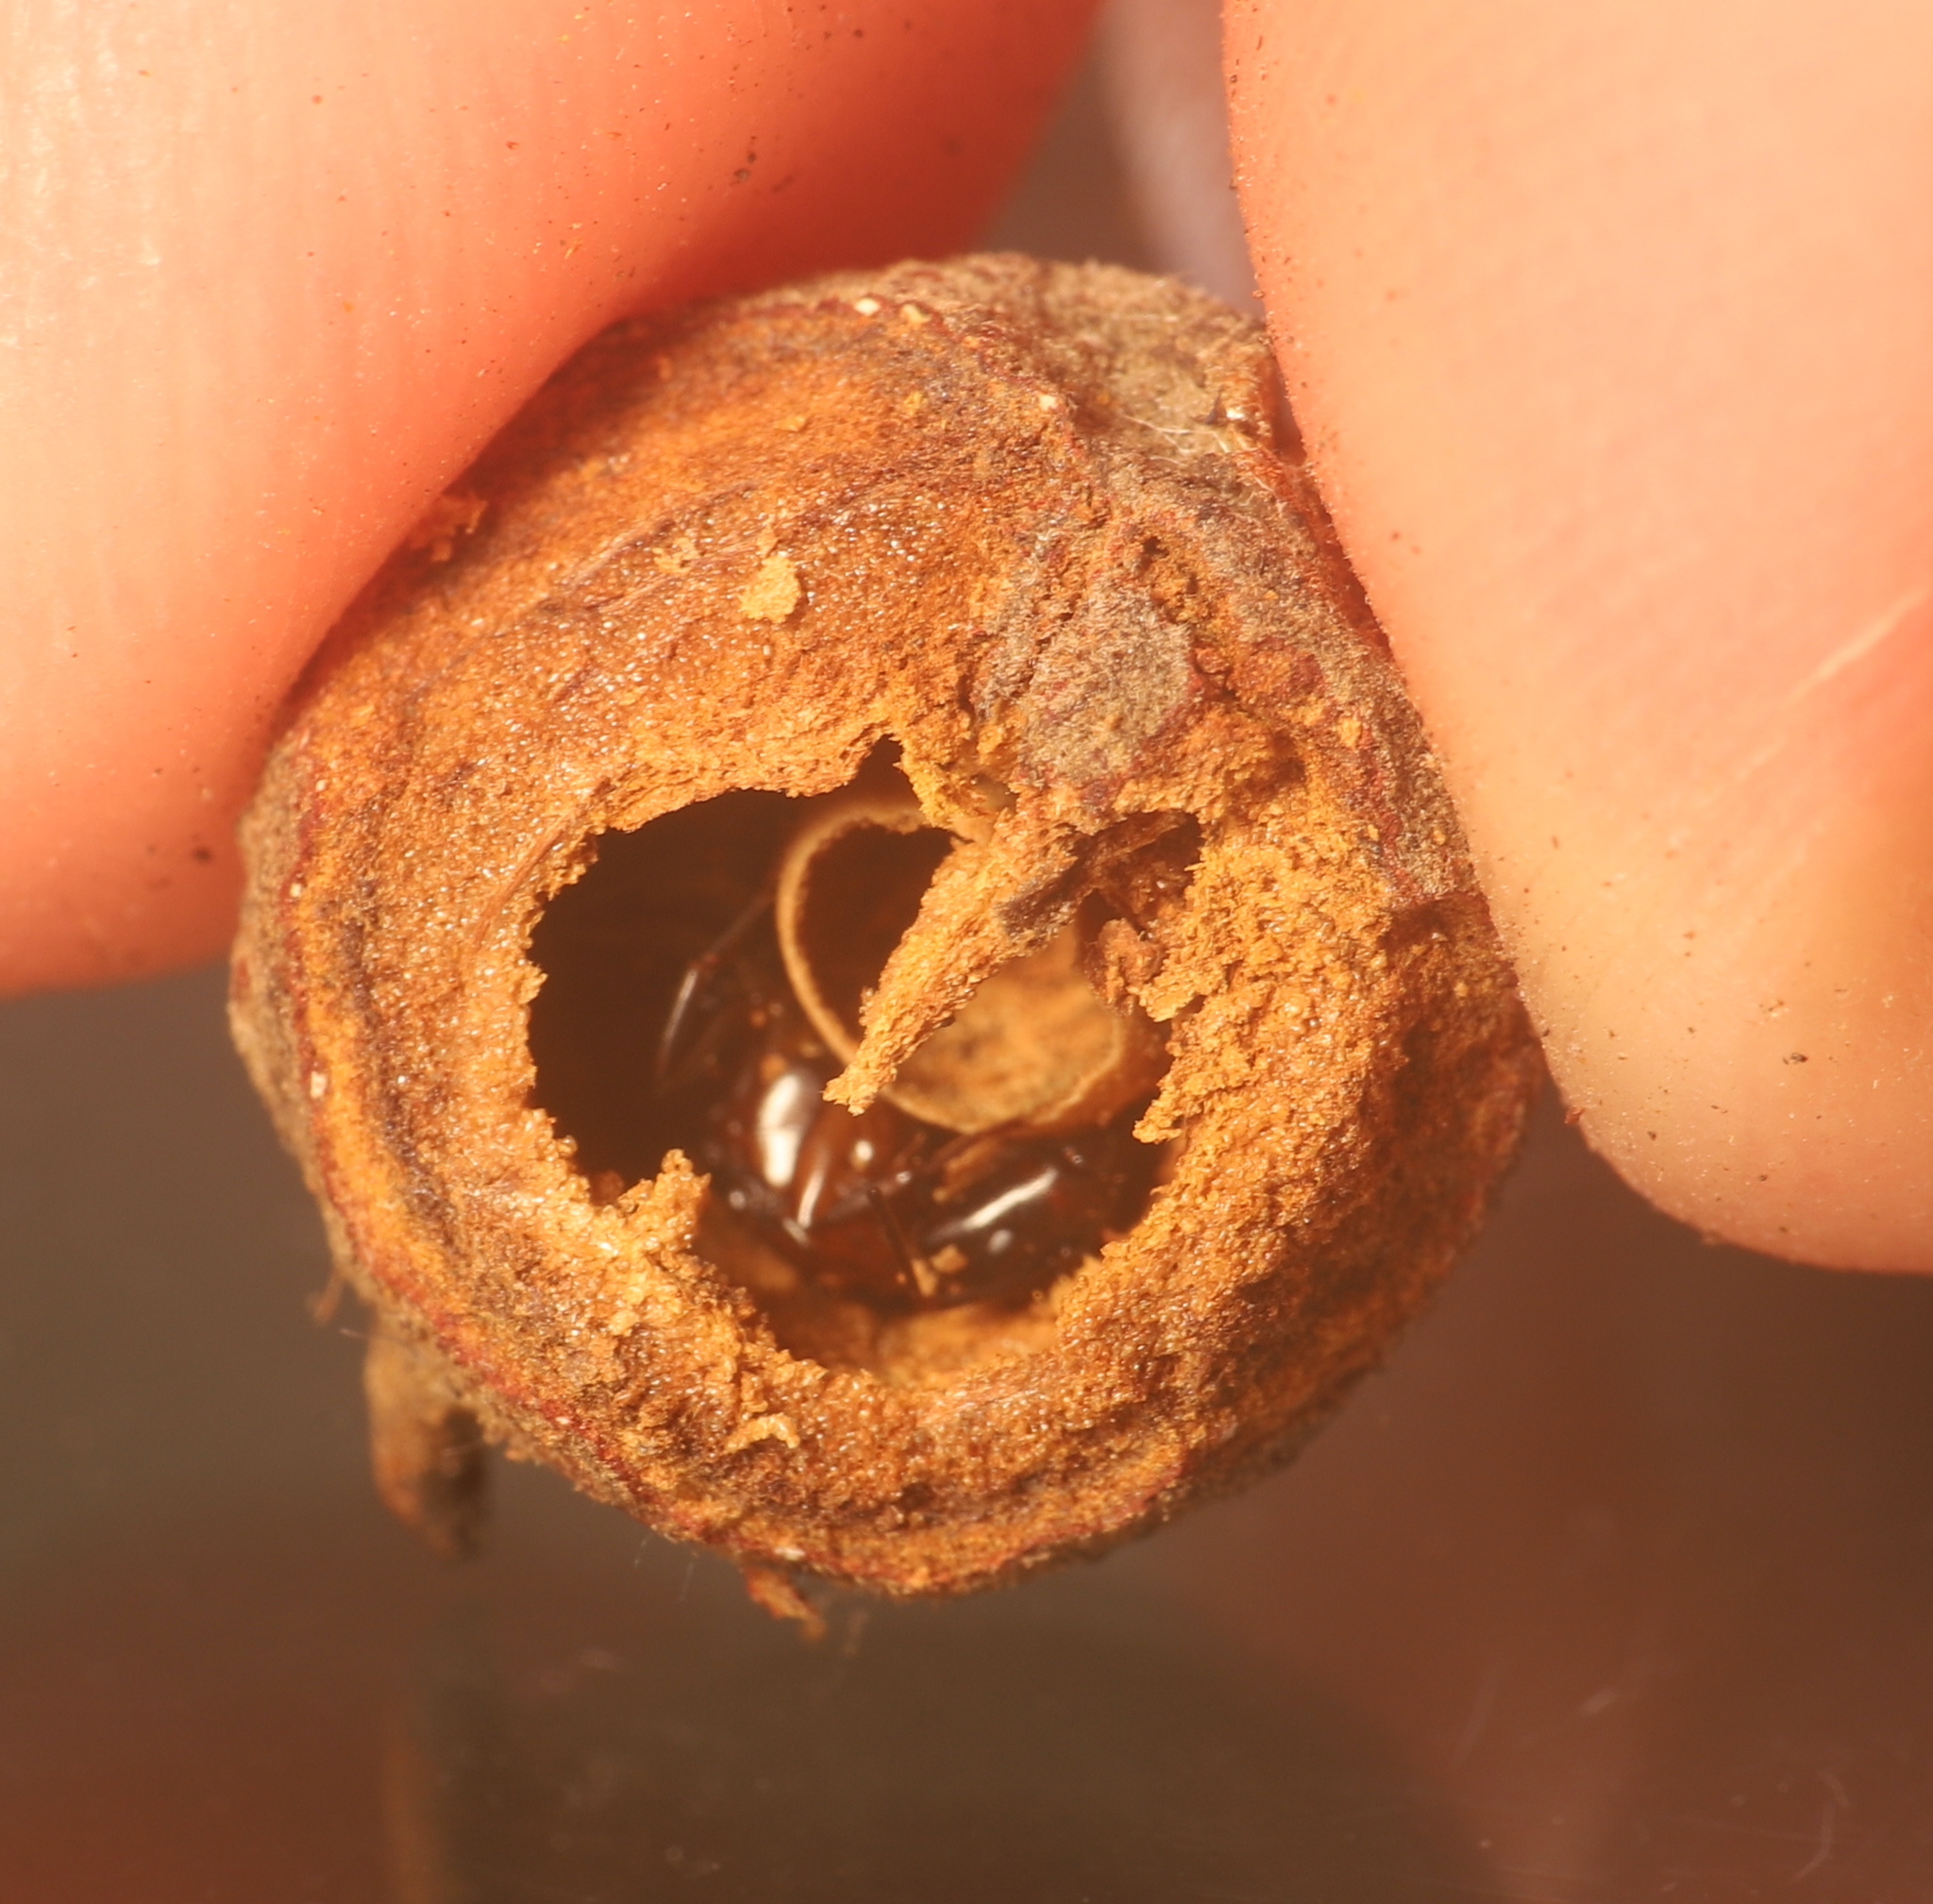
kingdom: Animalia
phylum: Arthropoda
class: Insecta
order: Hymenoptera
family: Formicidae
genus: Camponotus
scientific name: Camponotus chromaiodes
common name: Red carpenter ant
